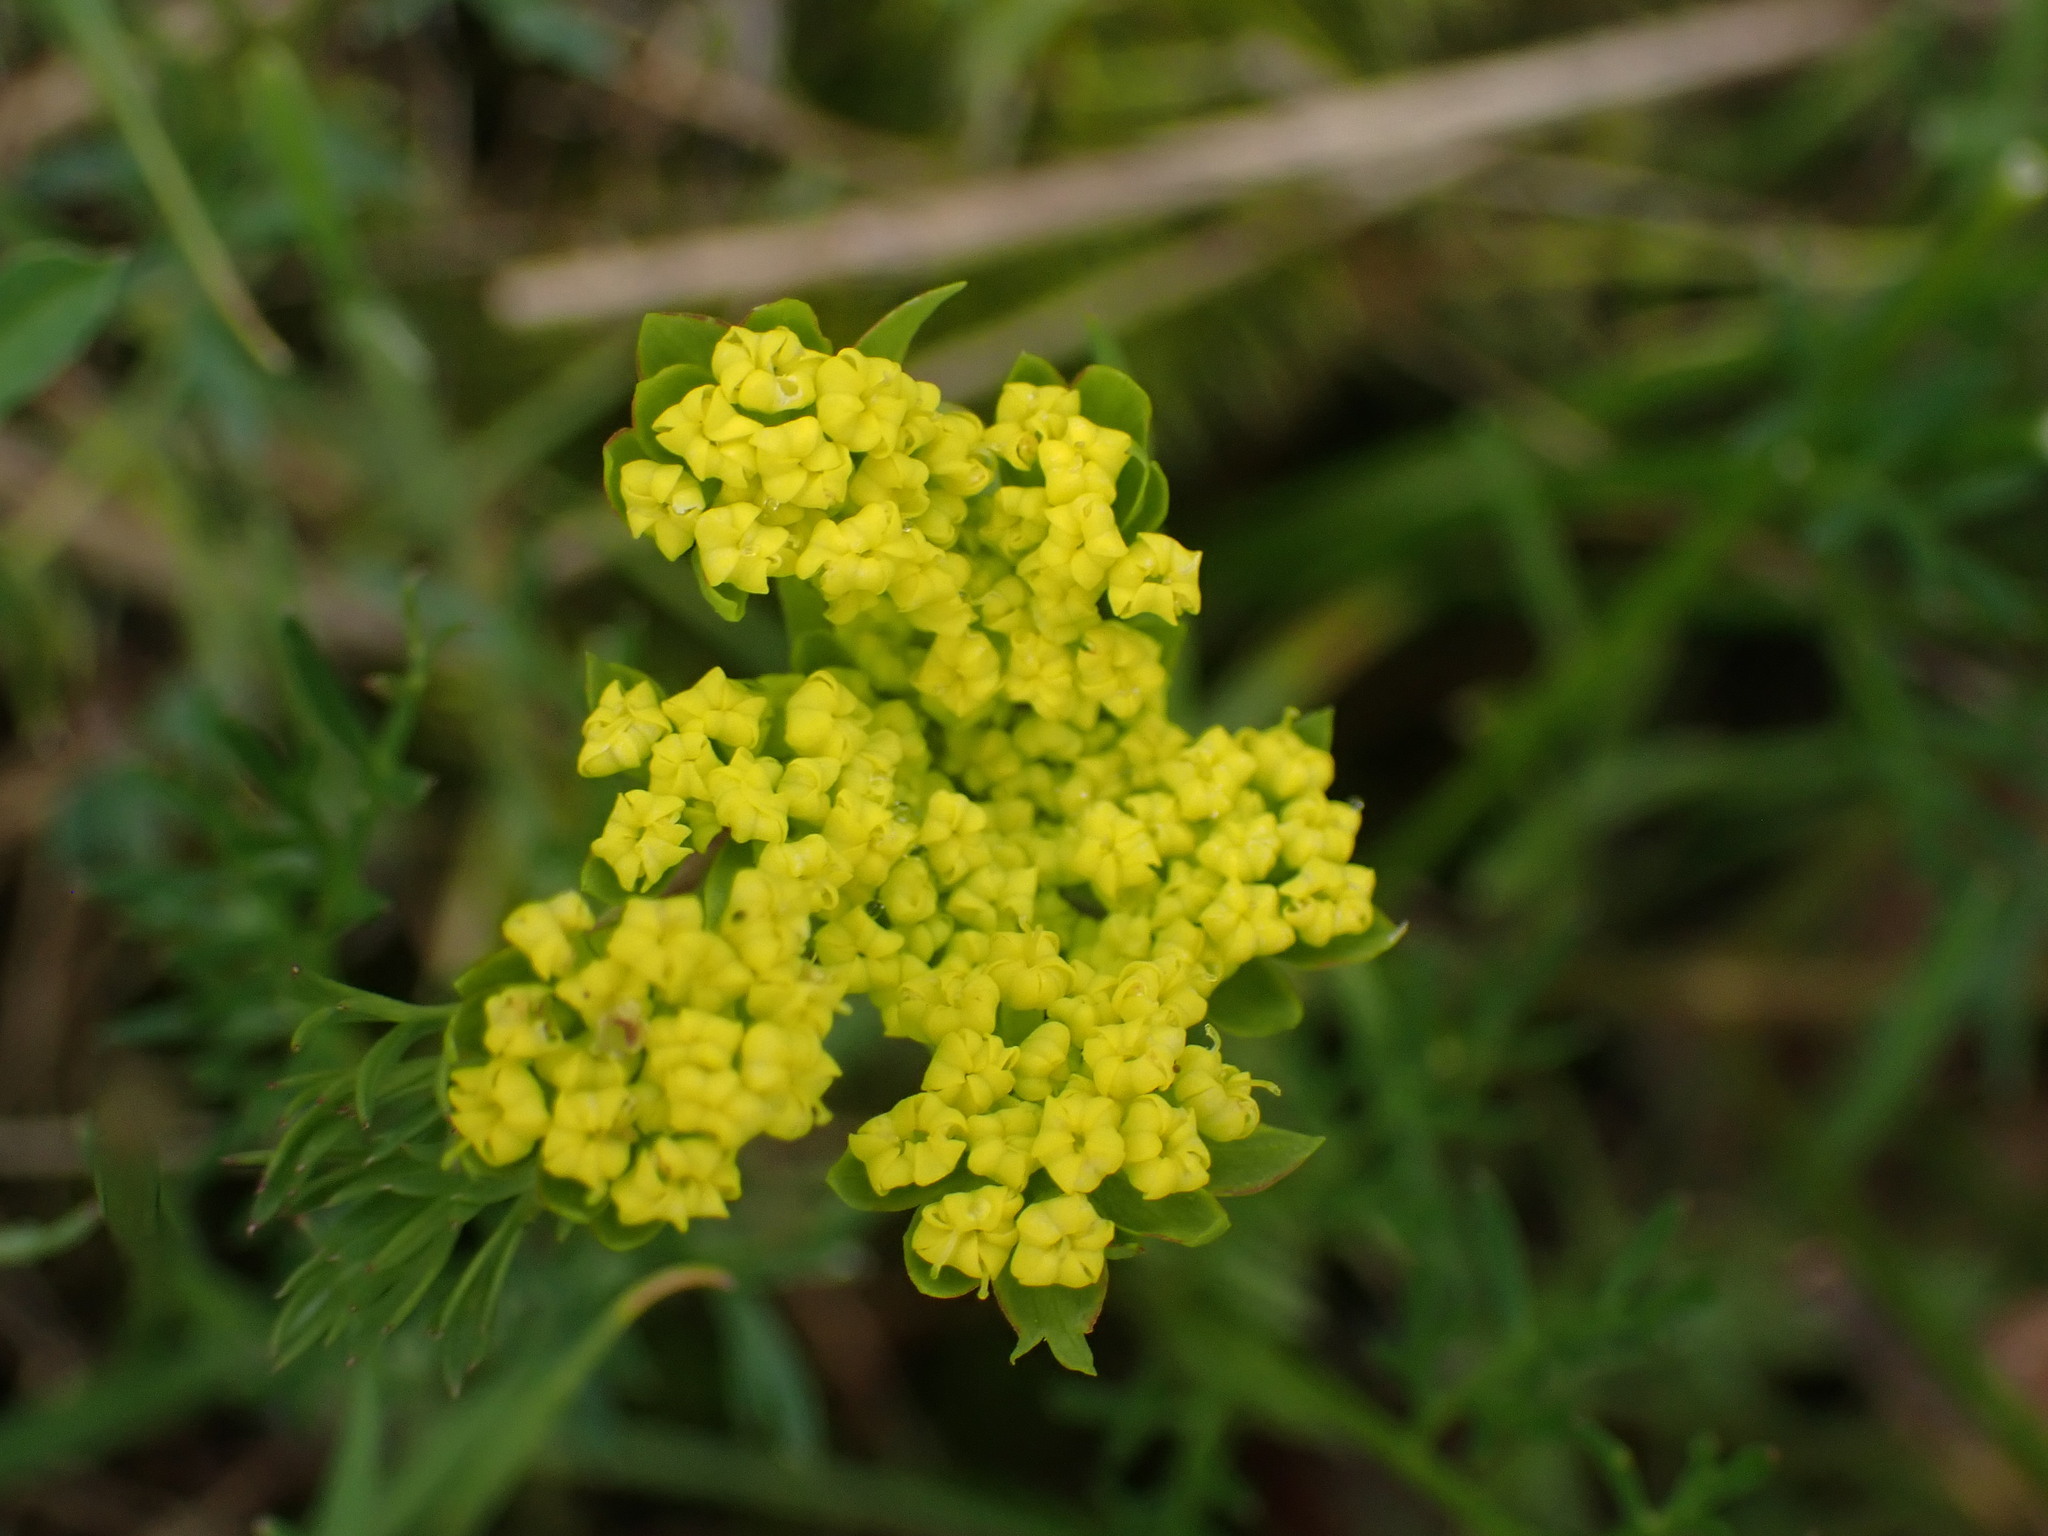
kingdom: Plantae
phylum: Tracheophyta
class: Magnoliopsida
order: Apiales
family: Apiaceae
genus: Lomatium
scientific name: Lomatium utriculatum
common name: Fine-leaf desert-parsley
